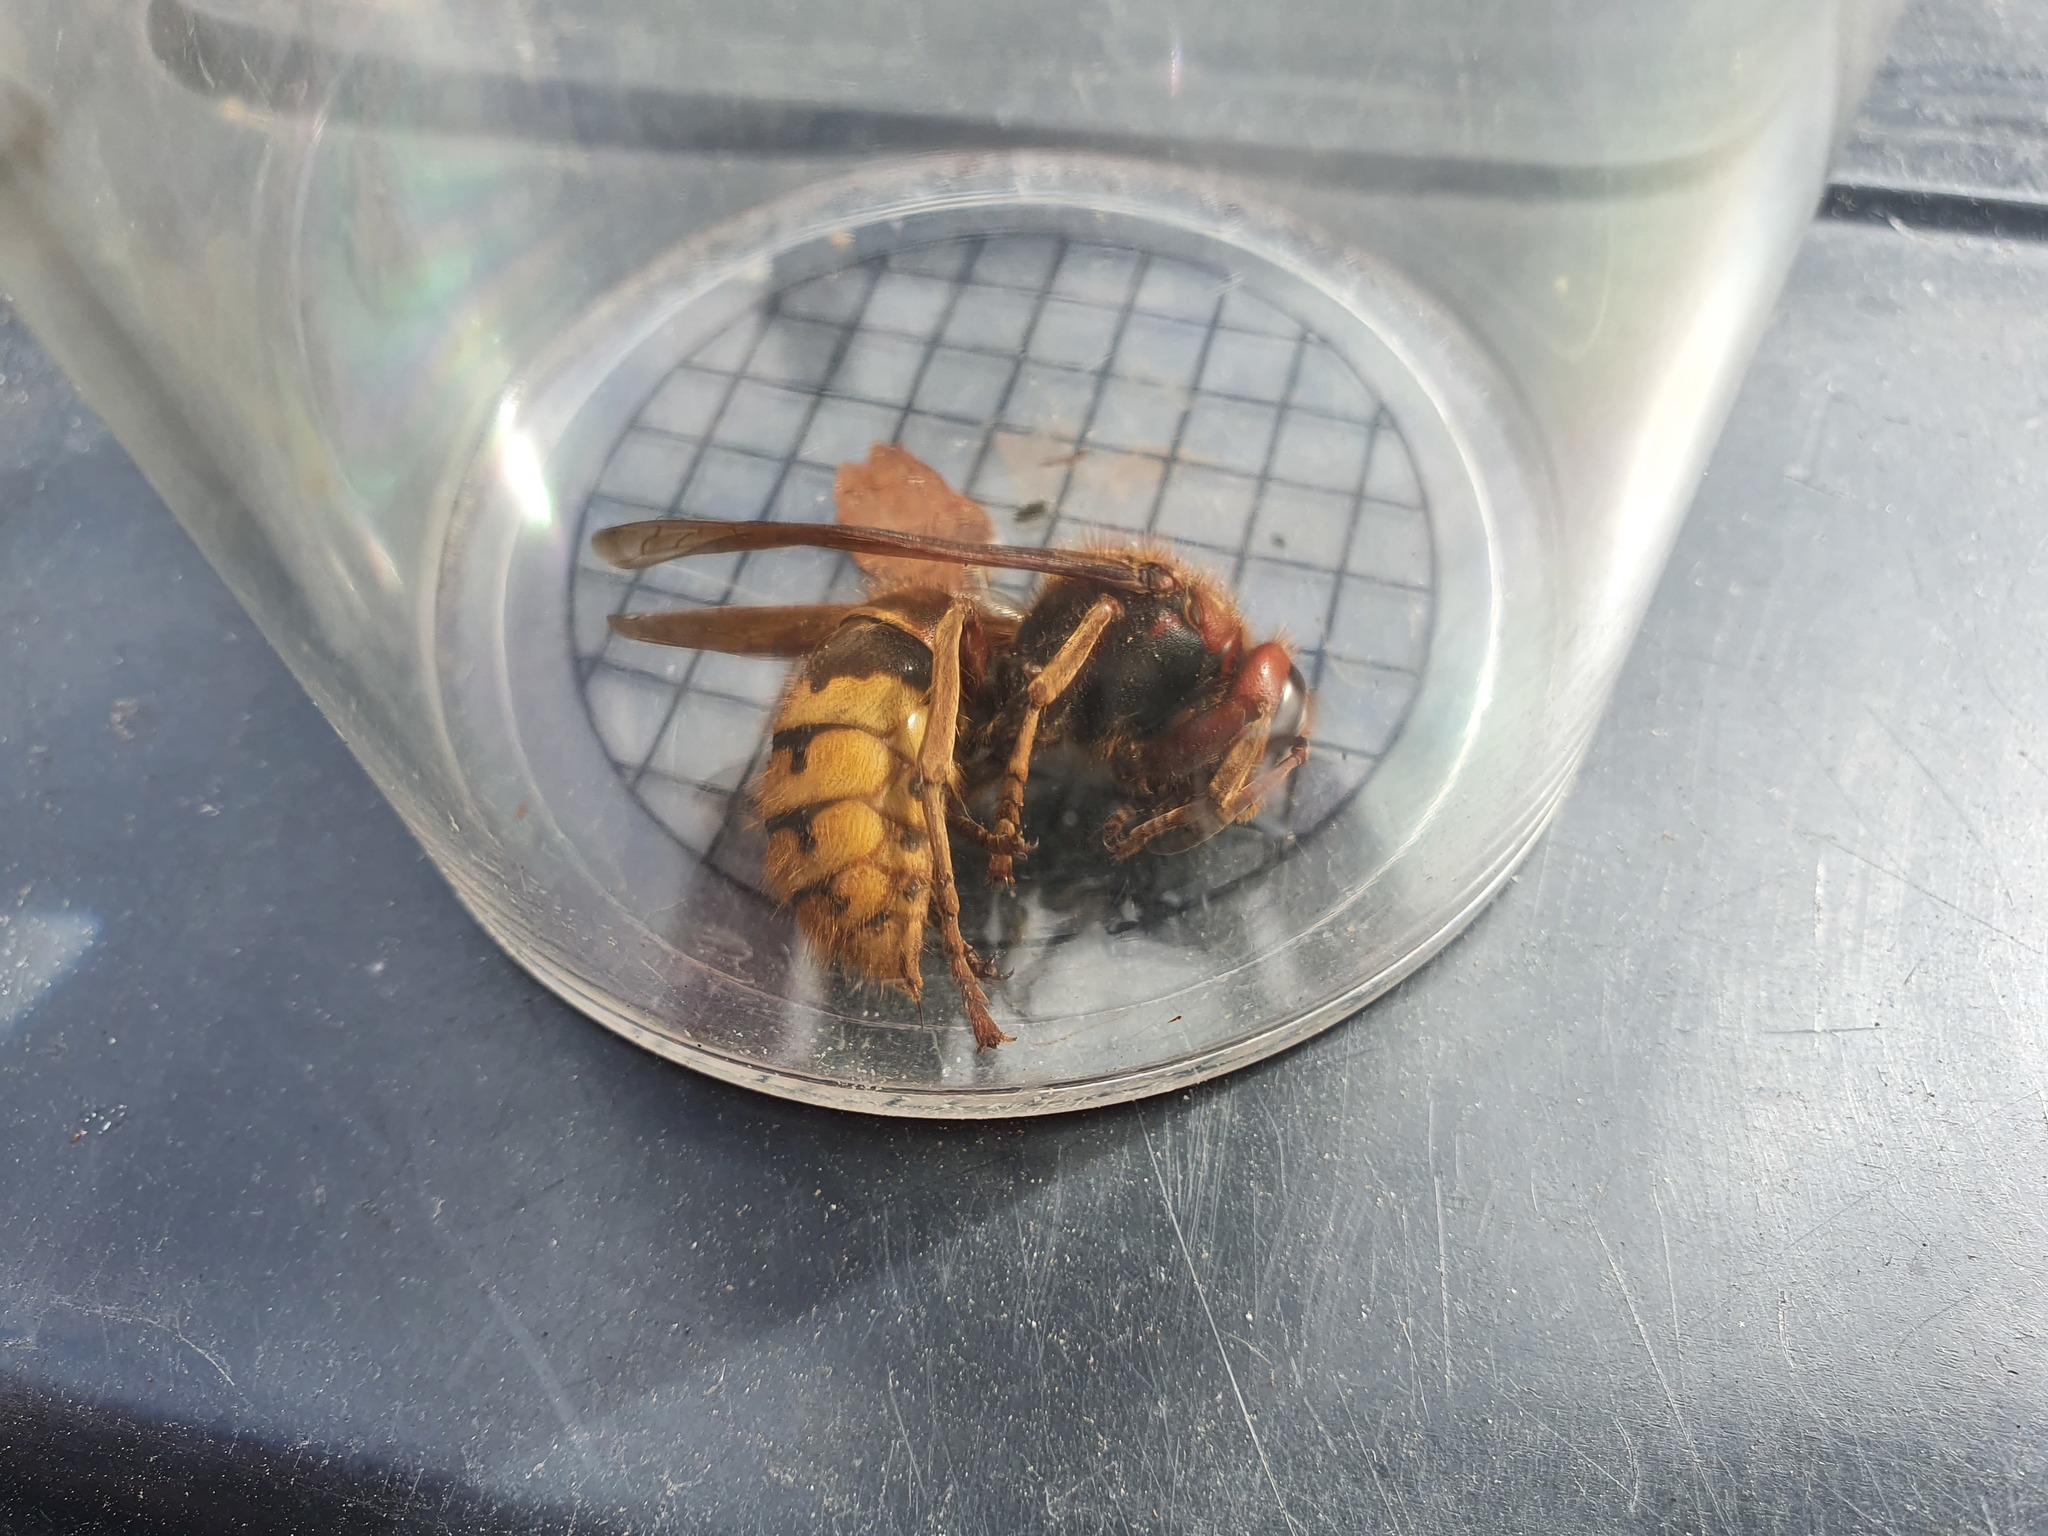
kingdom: Animalia
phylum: Arthropoda
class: Insecta
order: Hymenoptera
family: Vespidae
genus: Vespa
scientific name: Vespa crabro
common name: Hornet
